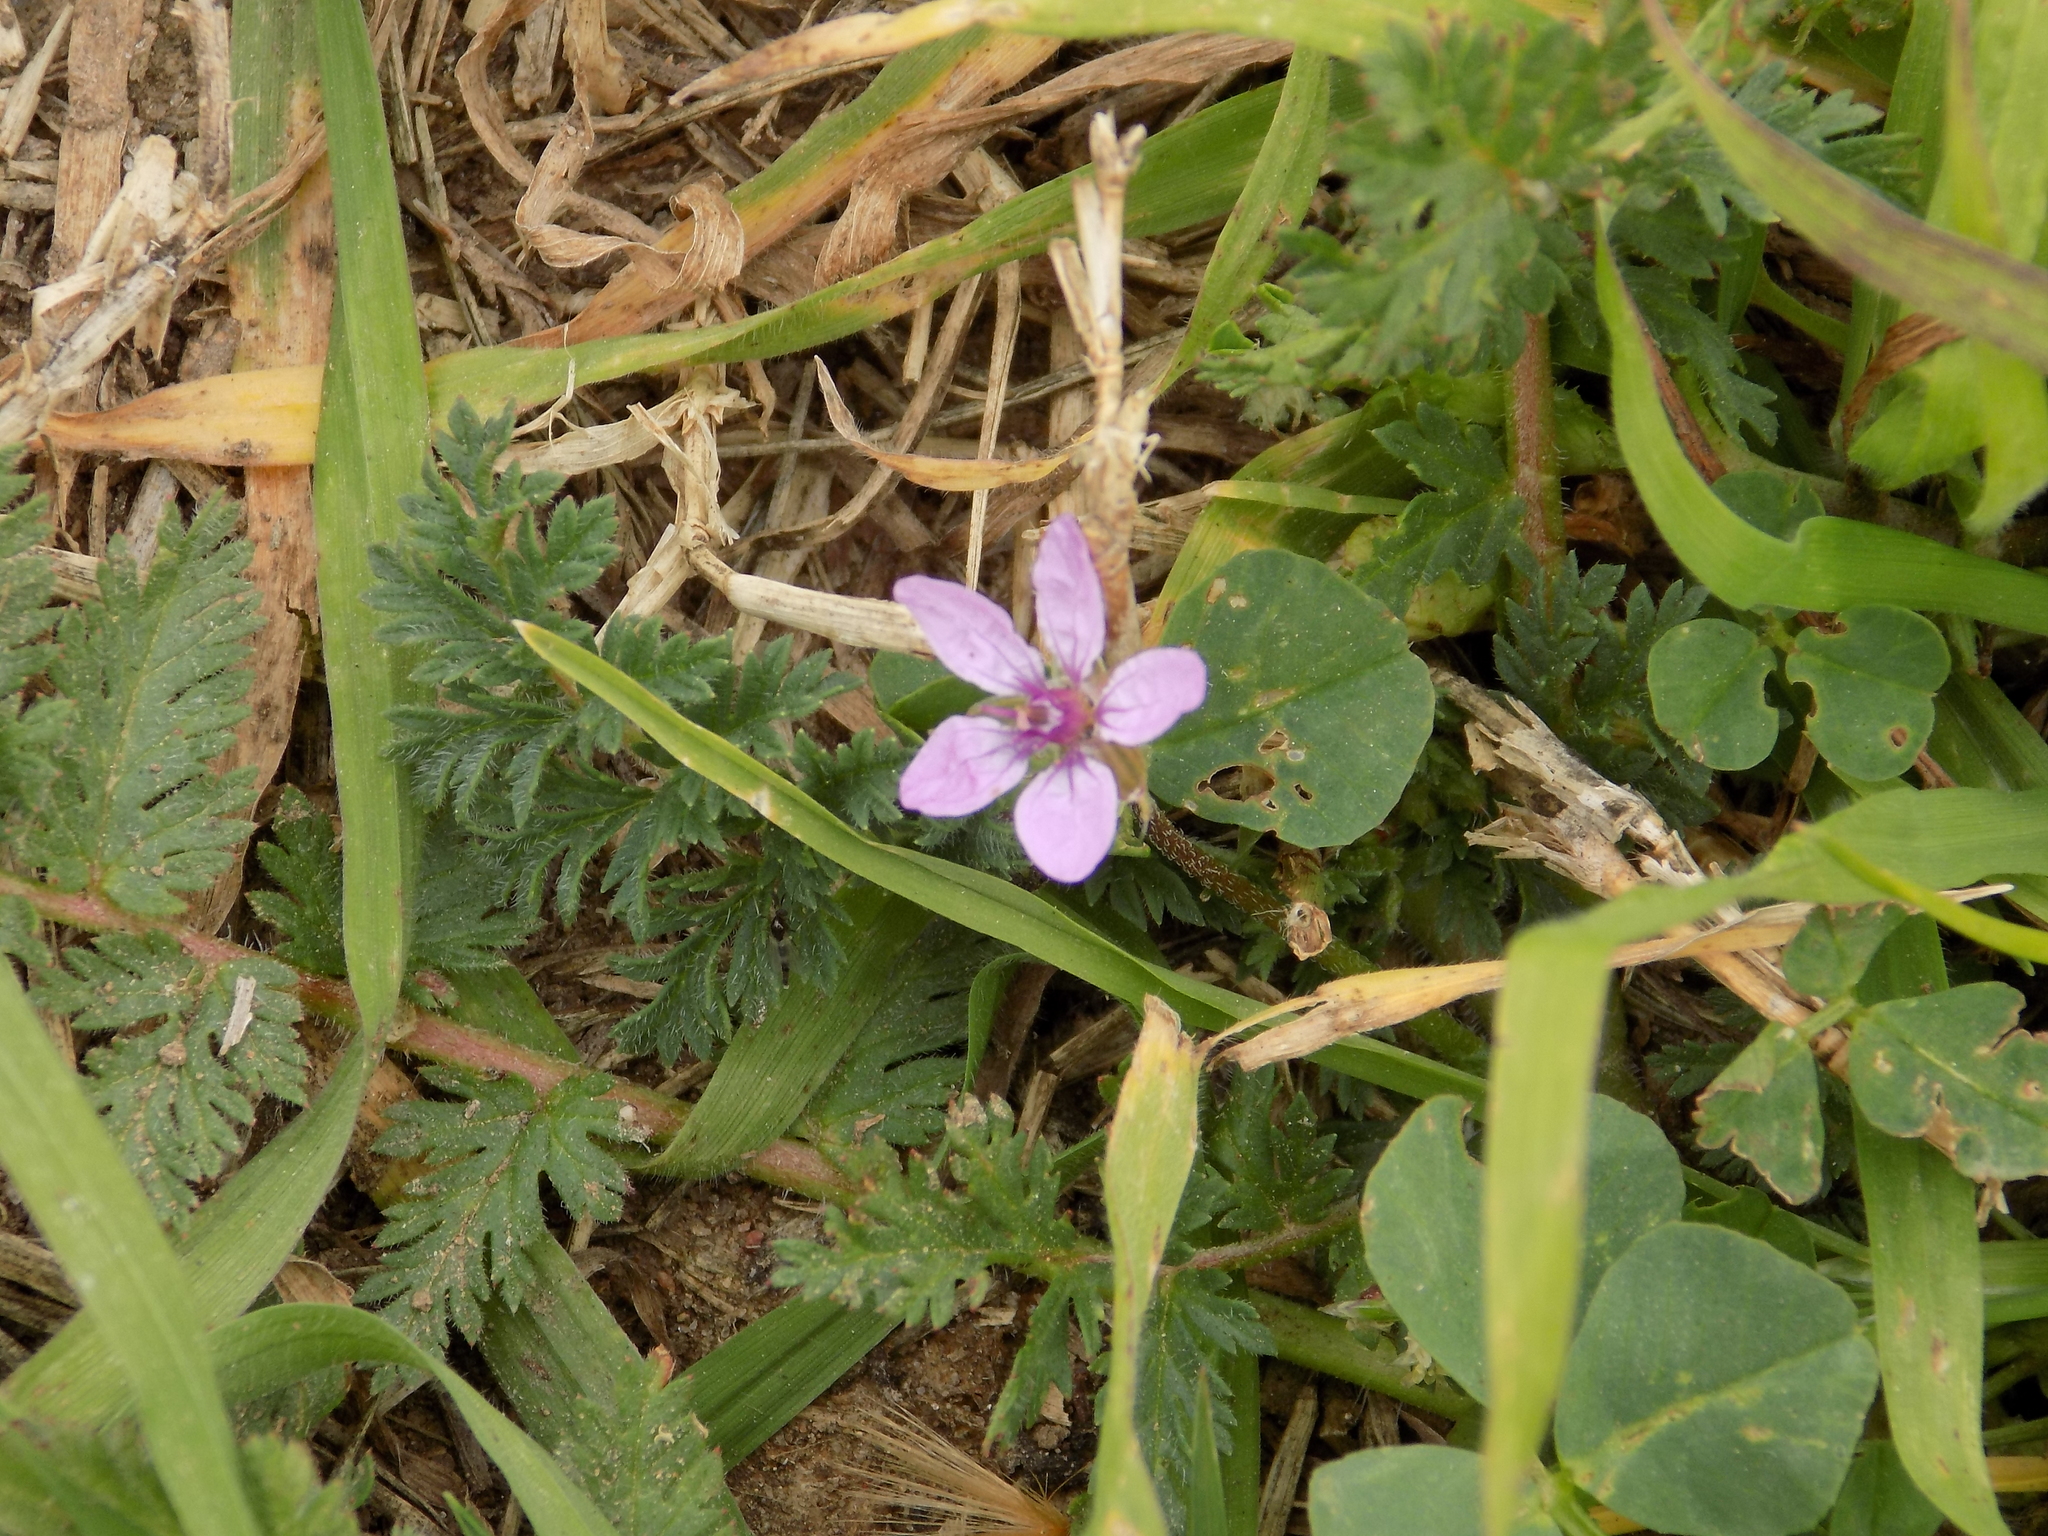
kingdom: Plantae
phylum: Tracheophyta
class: Magnoliopsida
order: Geraniales
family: Geraniaceae
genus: Erodium
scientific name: Erodium cicutarium
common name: Common stork's-bill
